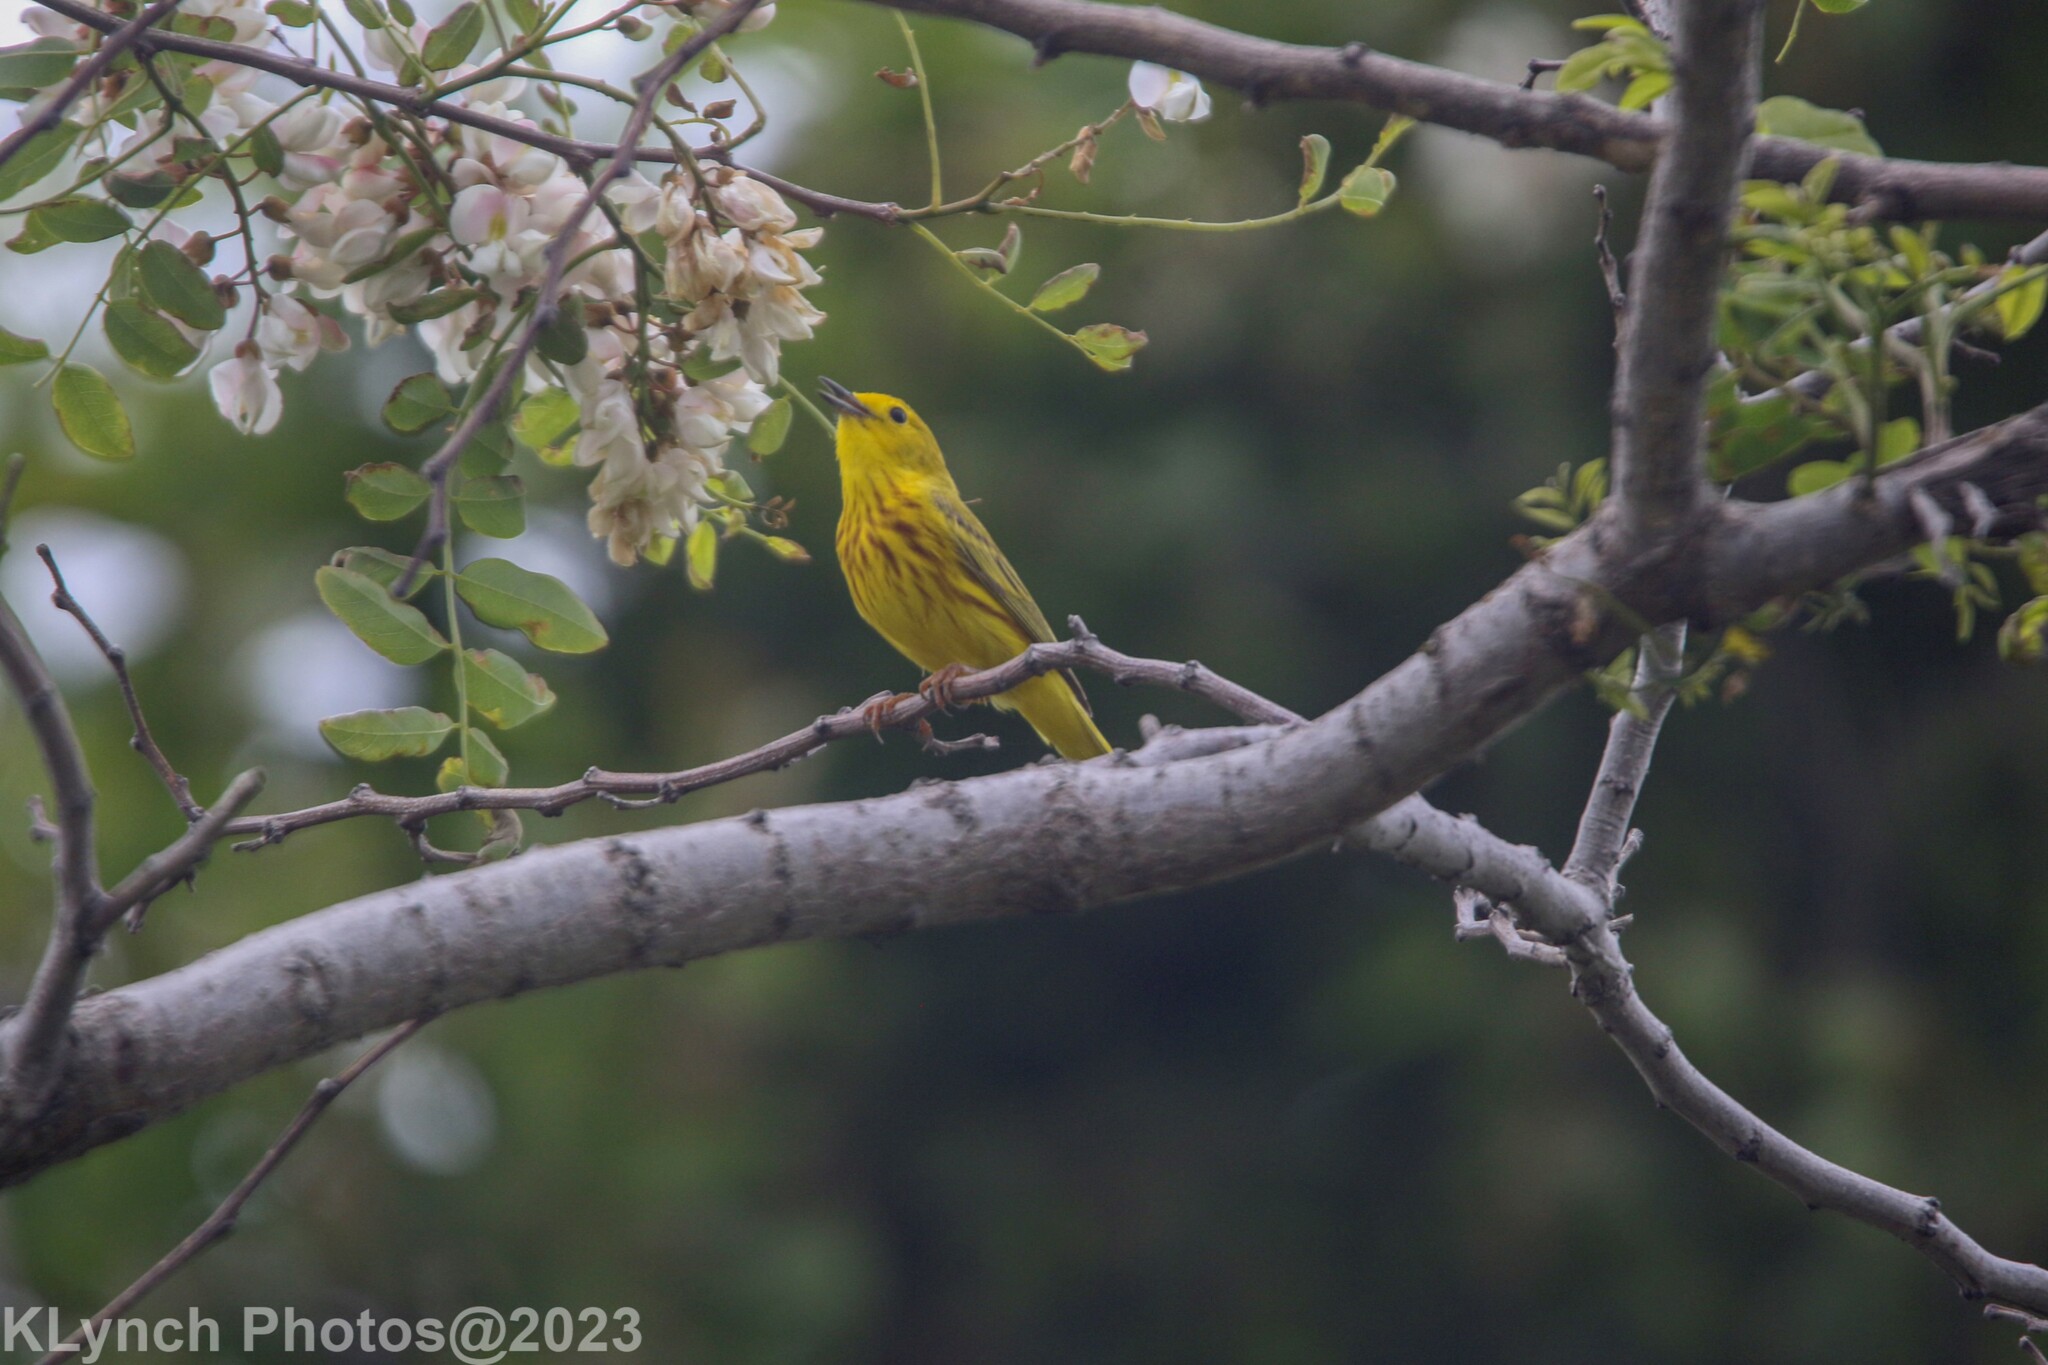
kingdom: Animalia
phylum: Chordata
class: Aves
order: Passeriformes
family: Parulidae
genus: Setophaga
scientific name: Setophaga petechia
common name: Yellow warbler
